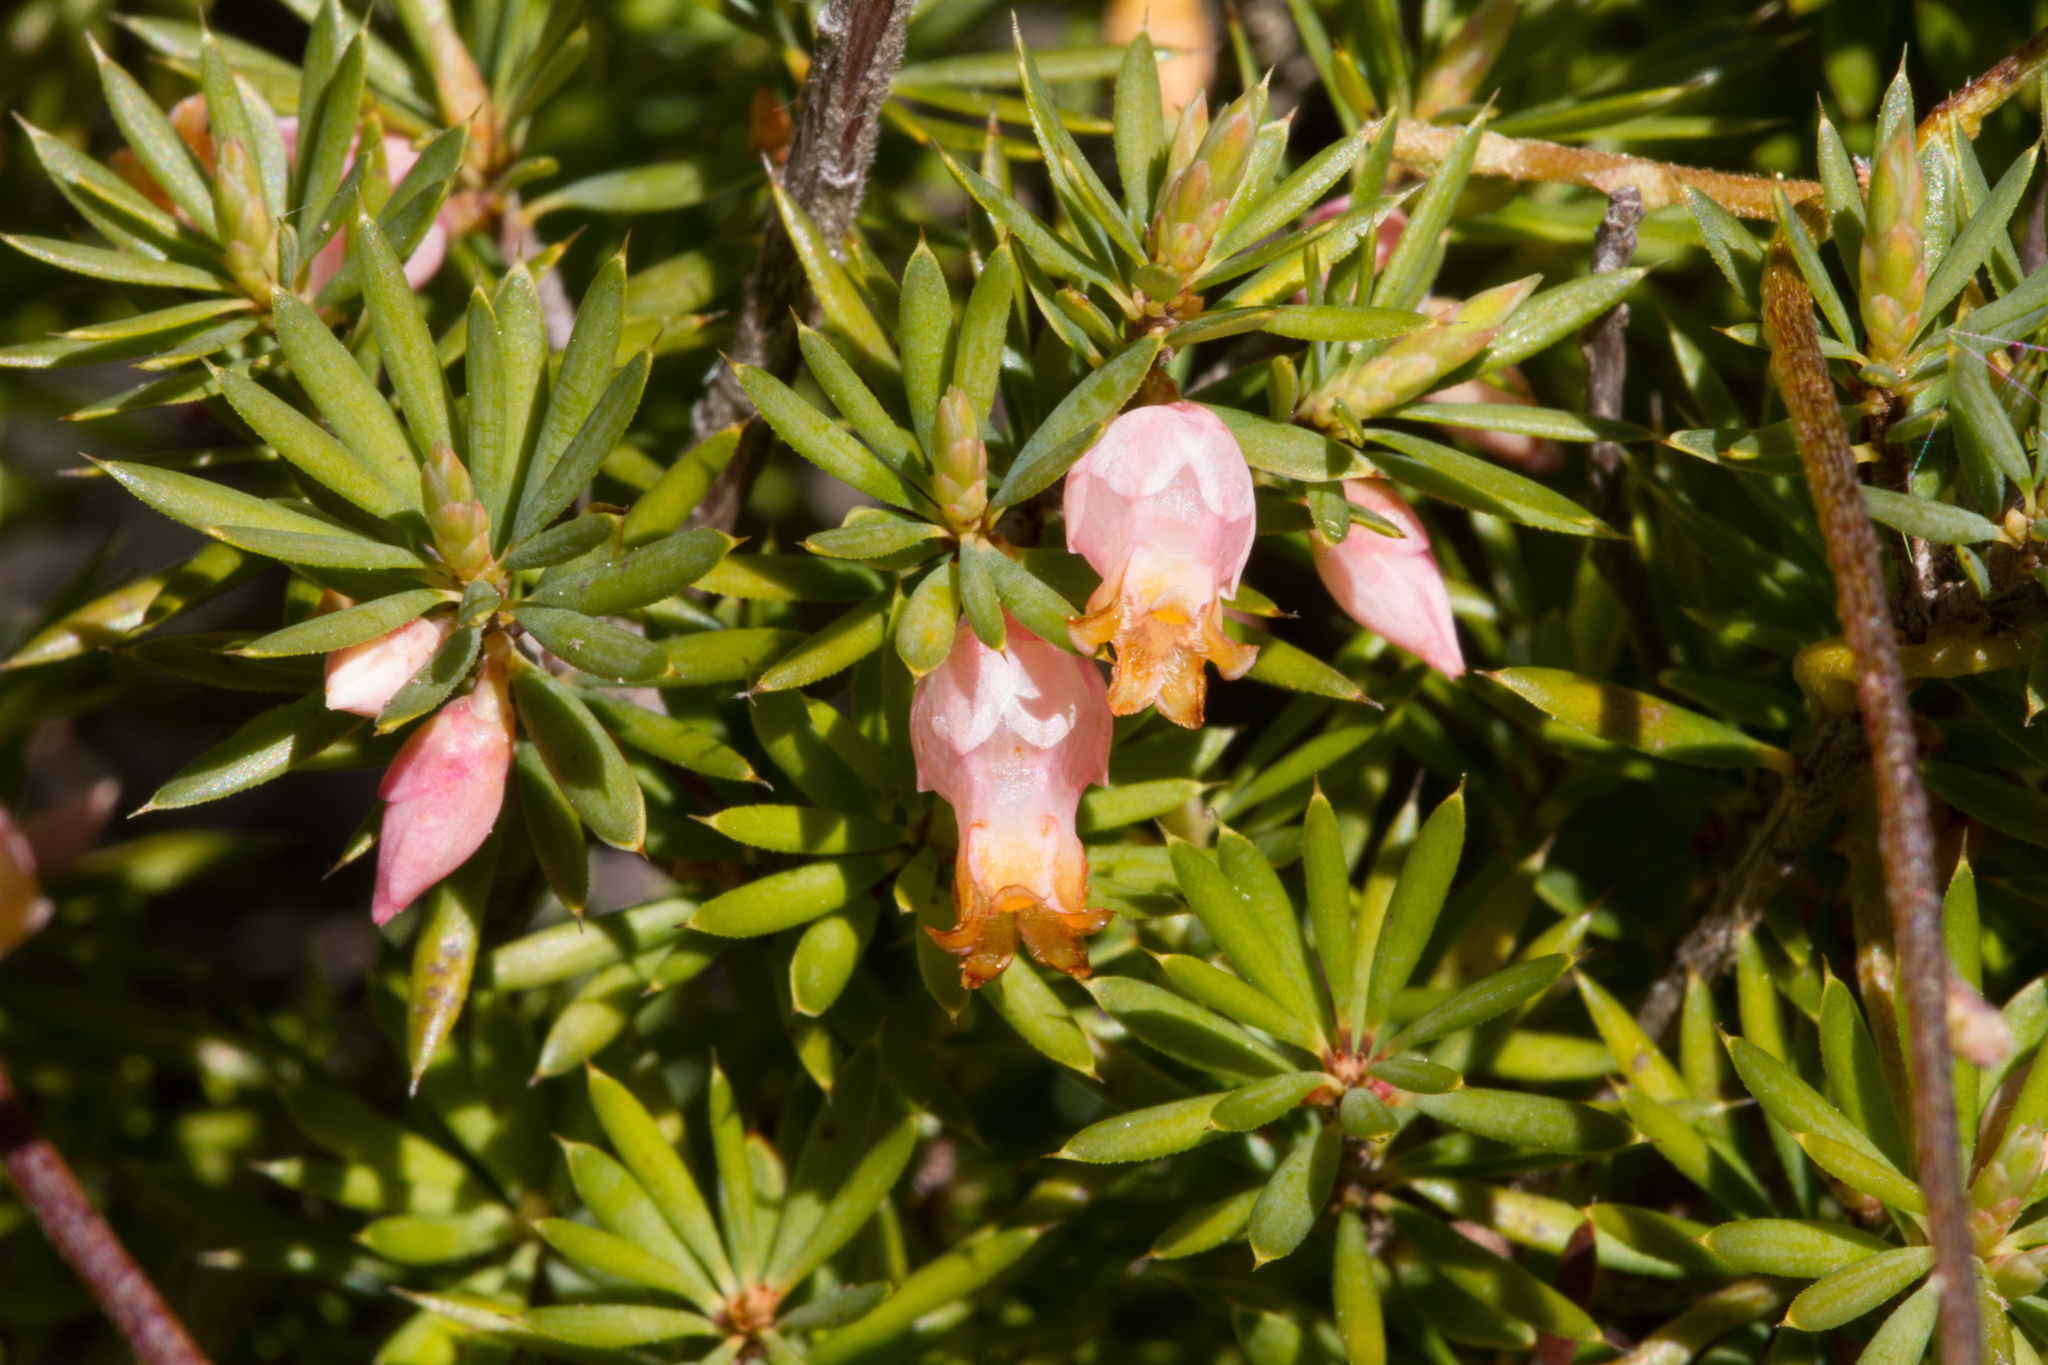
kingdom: Plantae
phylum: Tracheophyta
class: Magnoliopsida
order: Ericales
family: Ericaceae
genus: Brachyloma
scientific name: Brachyloma ericoides
